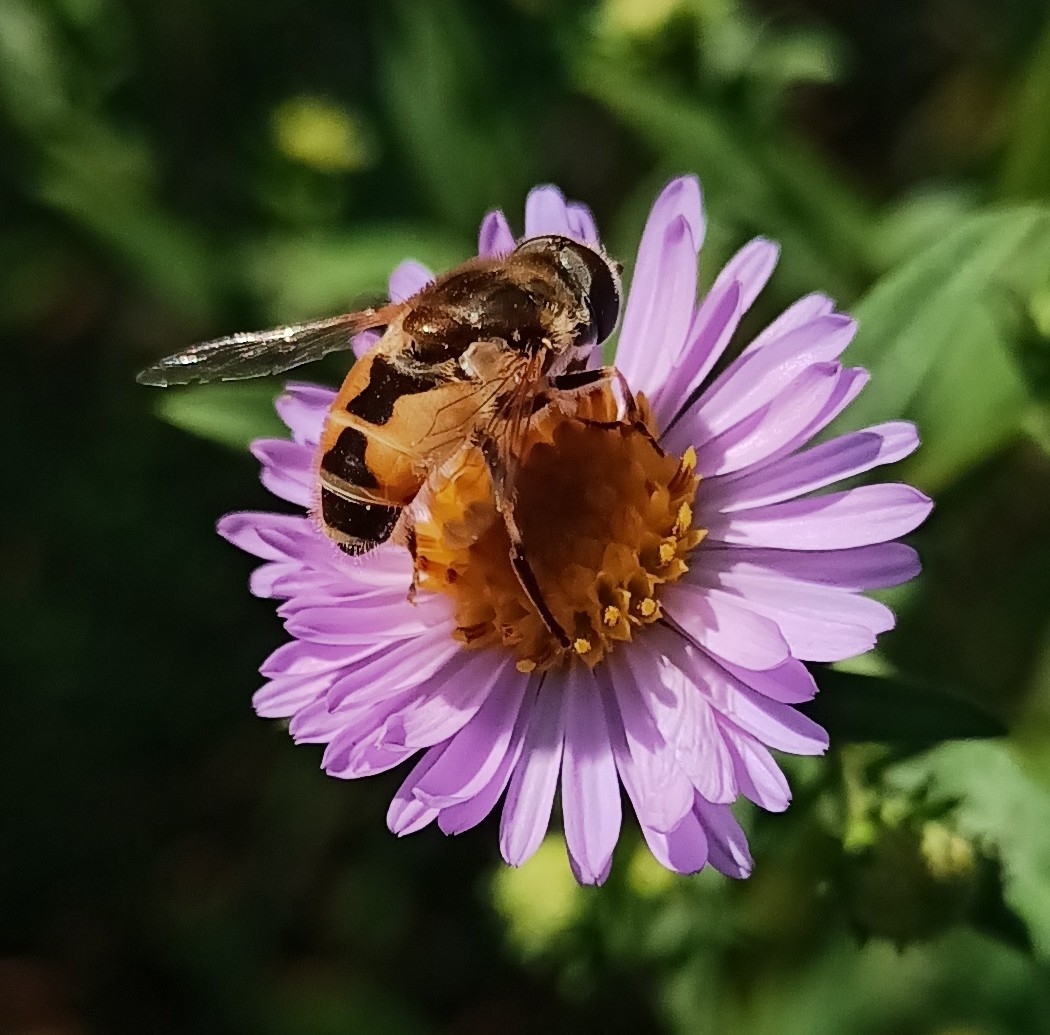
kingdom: Animalia
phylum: Arthropoda
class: Insecta
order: Diptera
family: Syrphidae
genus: Eristalis
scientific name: Eristalis arbustorum
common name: Hover fly
